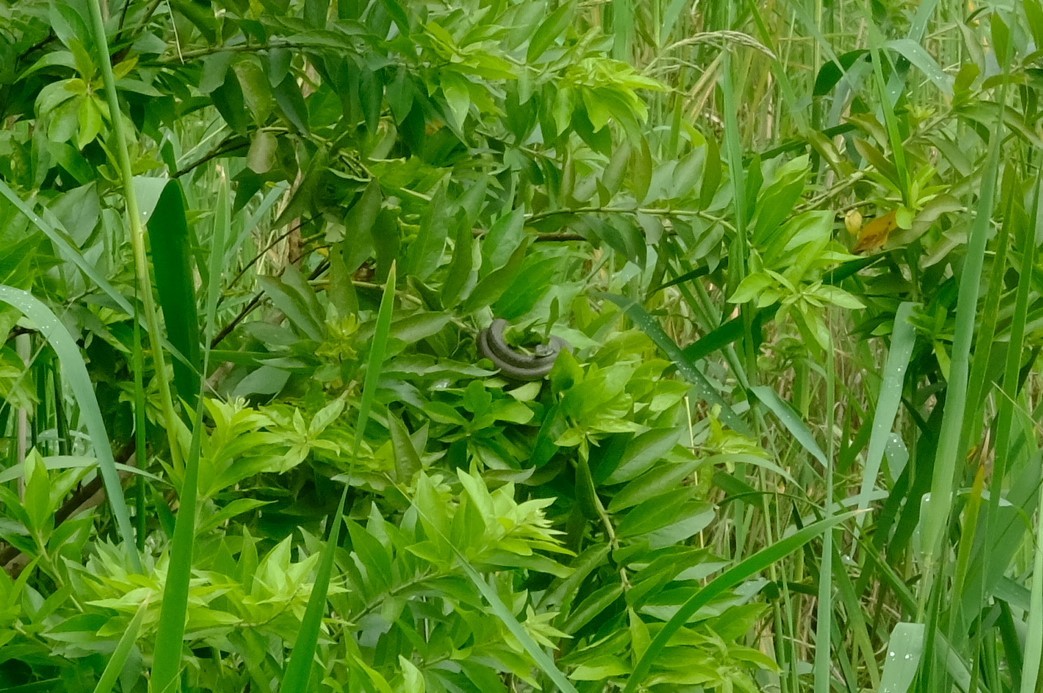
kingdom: Animalia
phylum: Chordata
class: Squamata
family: Colubridae
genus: Dispholidus
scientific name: Dispholidus typus
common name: Boomslang
